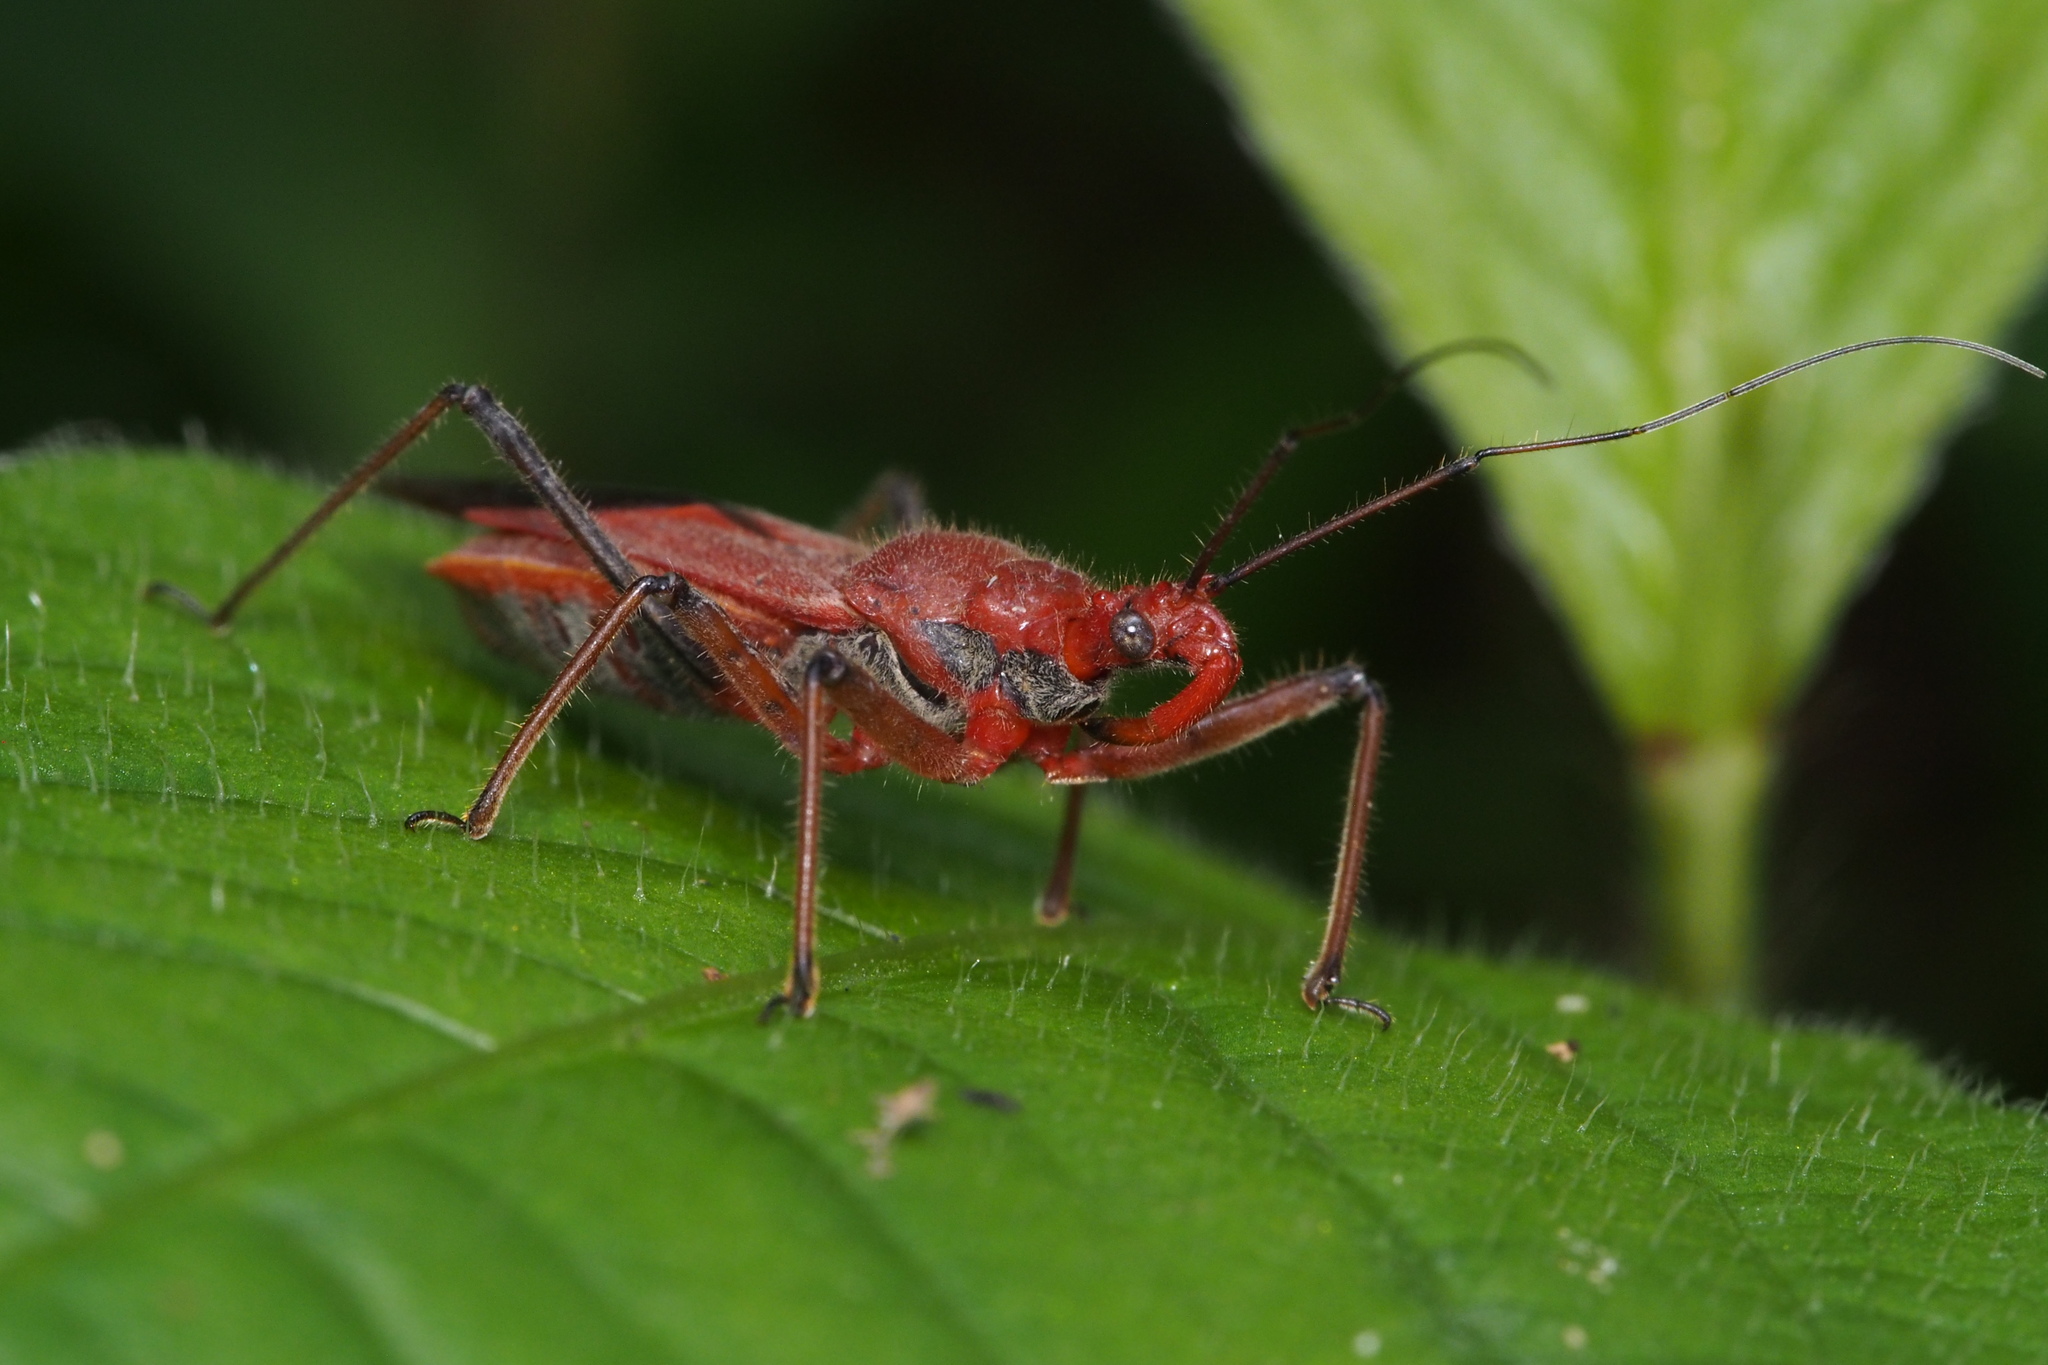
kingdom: Animalia
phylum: Arthropoda
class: Insecta
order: Hemiptera
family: Reduviidae
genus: Cutocoris
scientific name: Cutocoris
